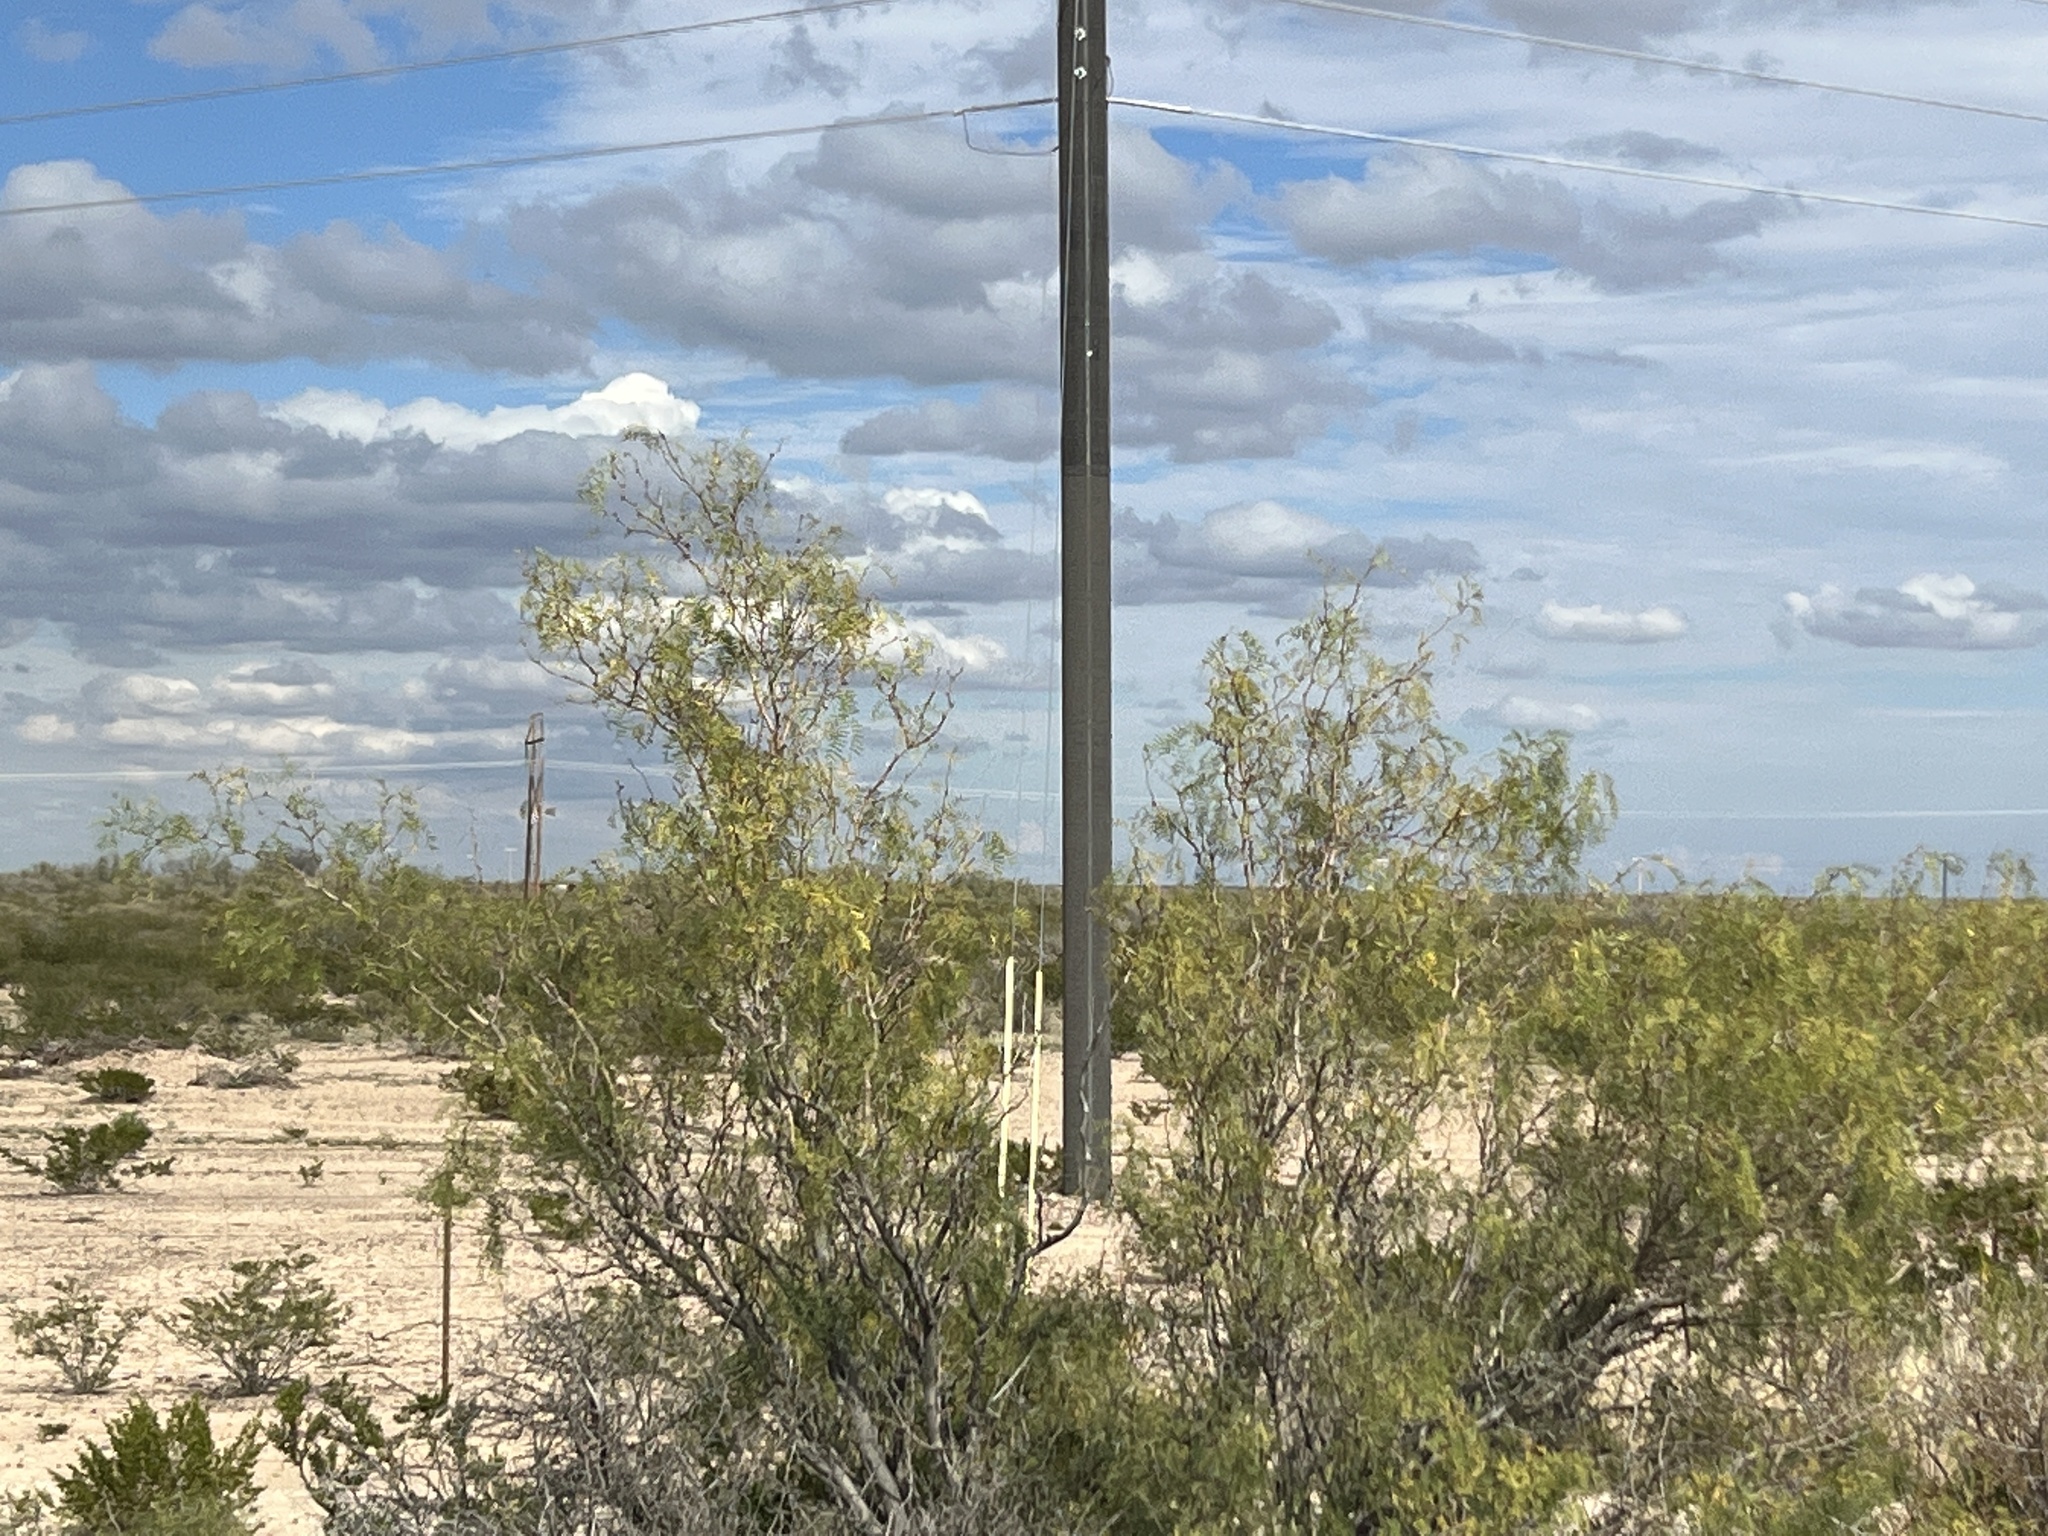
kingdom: Plantae
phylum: Tracheophyta
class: Magnoliopsida
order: Fabales
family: Fabaceae
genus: Prosopis
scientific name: Prosopis glandulosa
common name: Honey mesquite
